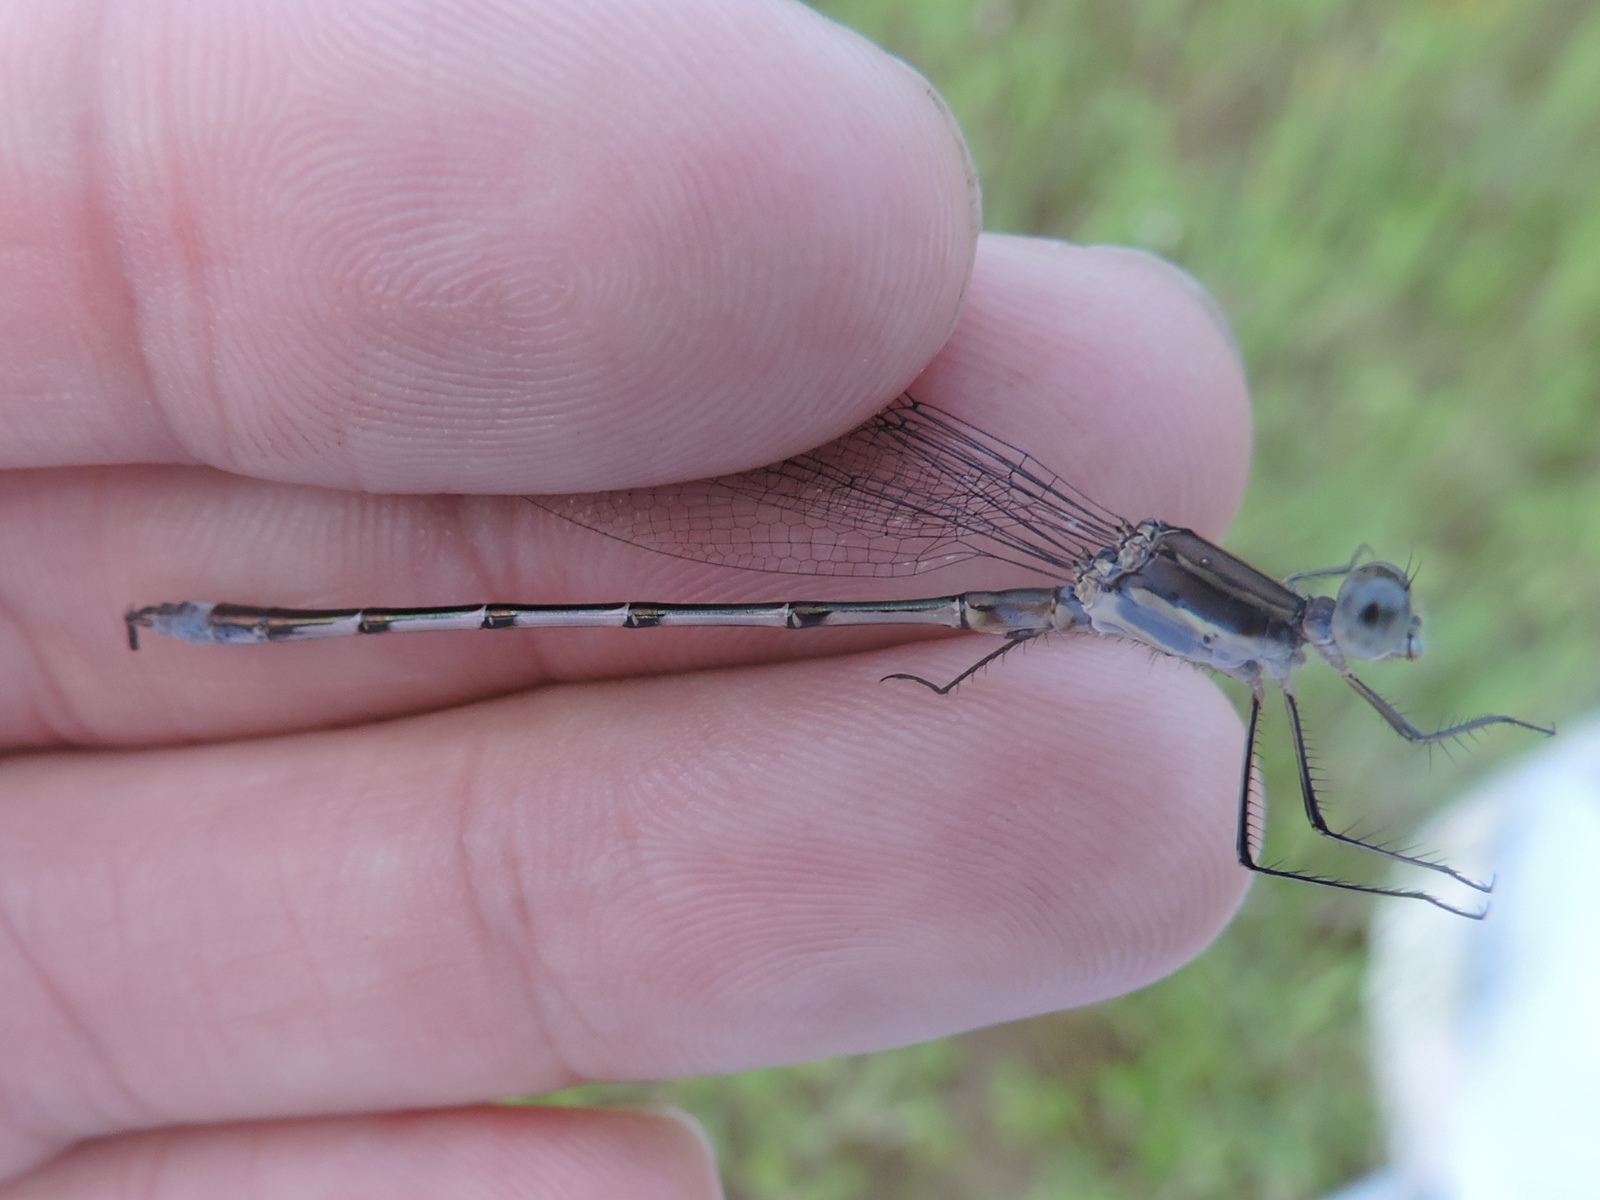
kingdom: Animalia
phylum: Arthropoda
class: Insecta
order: Odonata
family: Lestidae
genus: Lestes
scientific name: Lestes australis
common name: Southern spreadwing
